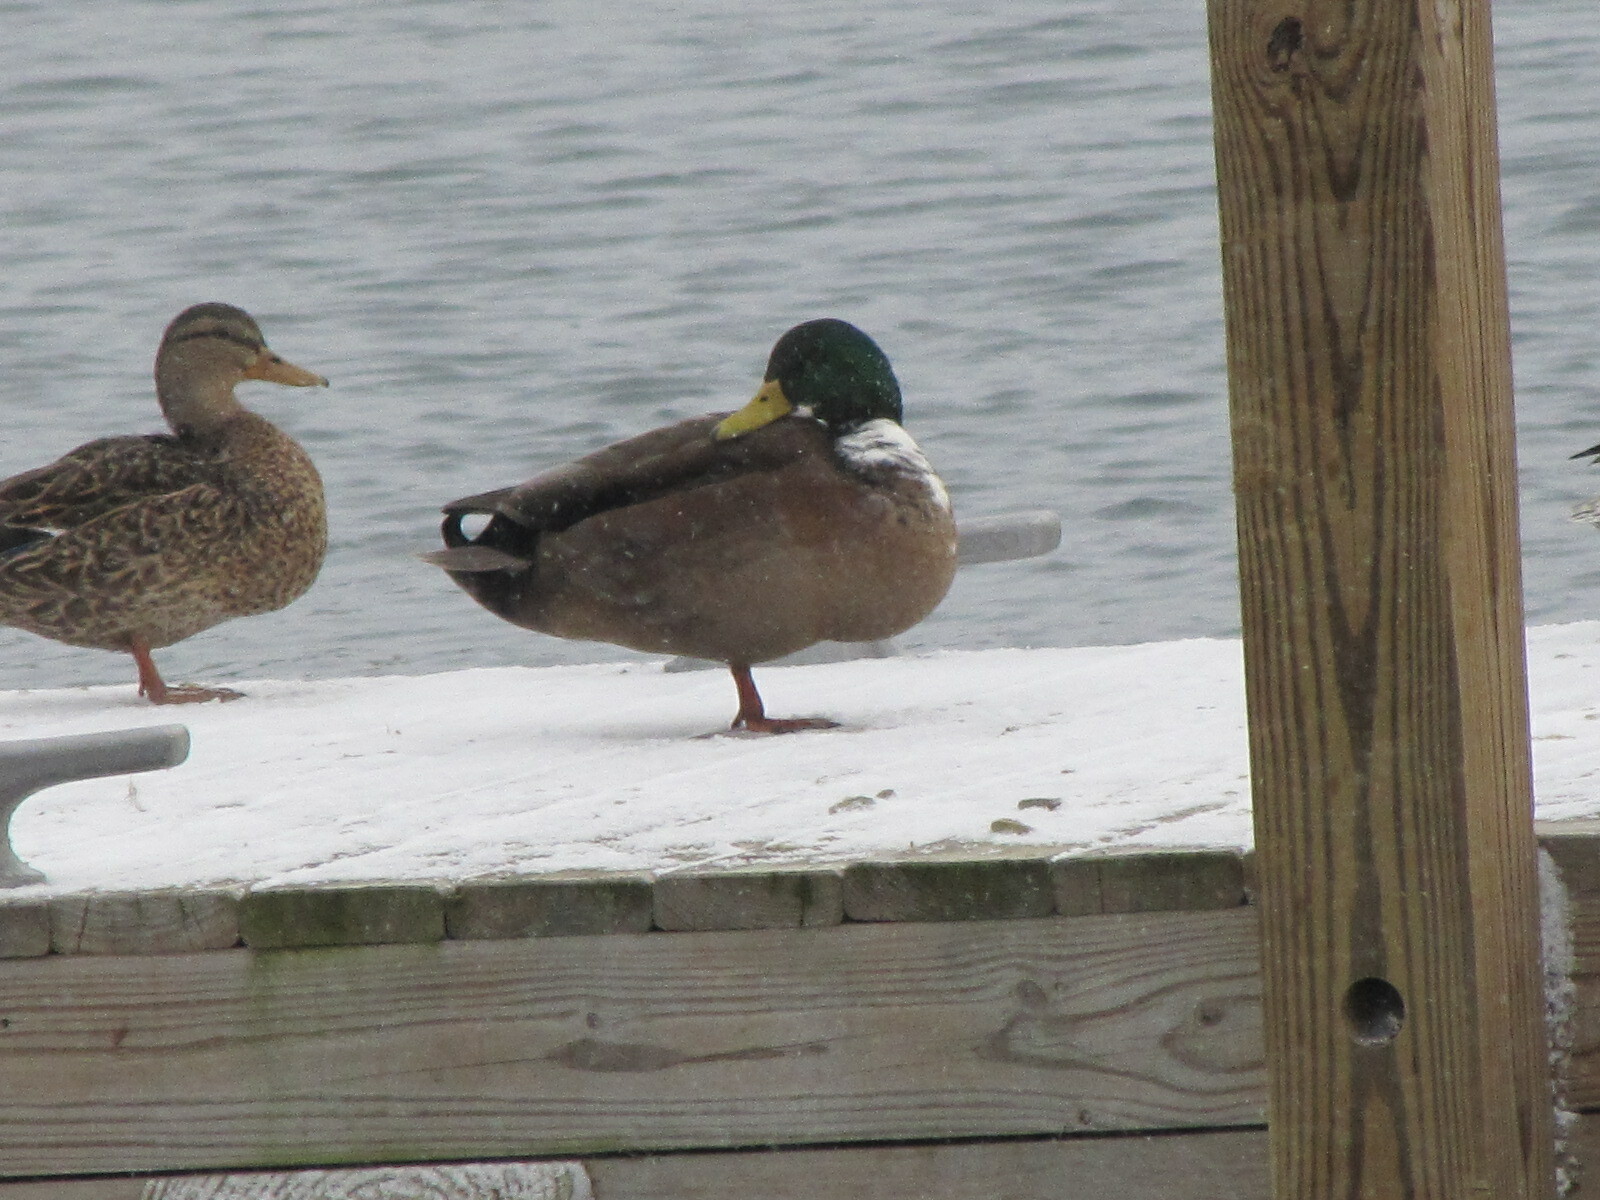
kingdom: Animalia
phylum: Chordata
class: Aves
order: Anseriformes
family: Anatidae
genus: Anas
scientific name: Anas platyrhynchos
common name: Mallard
